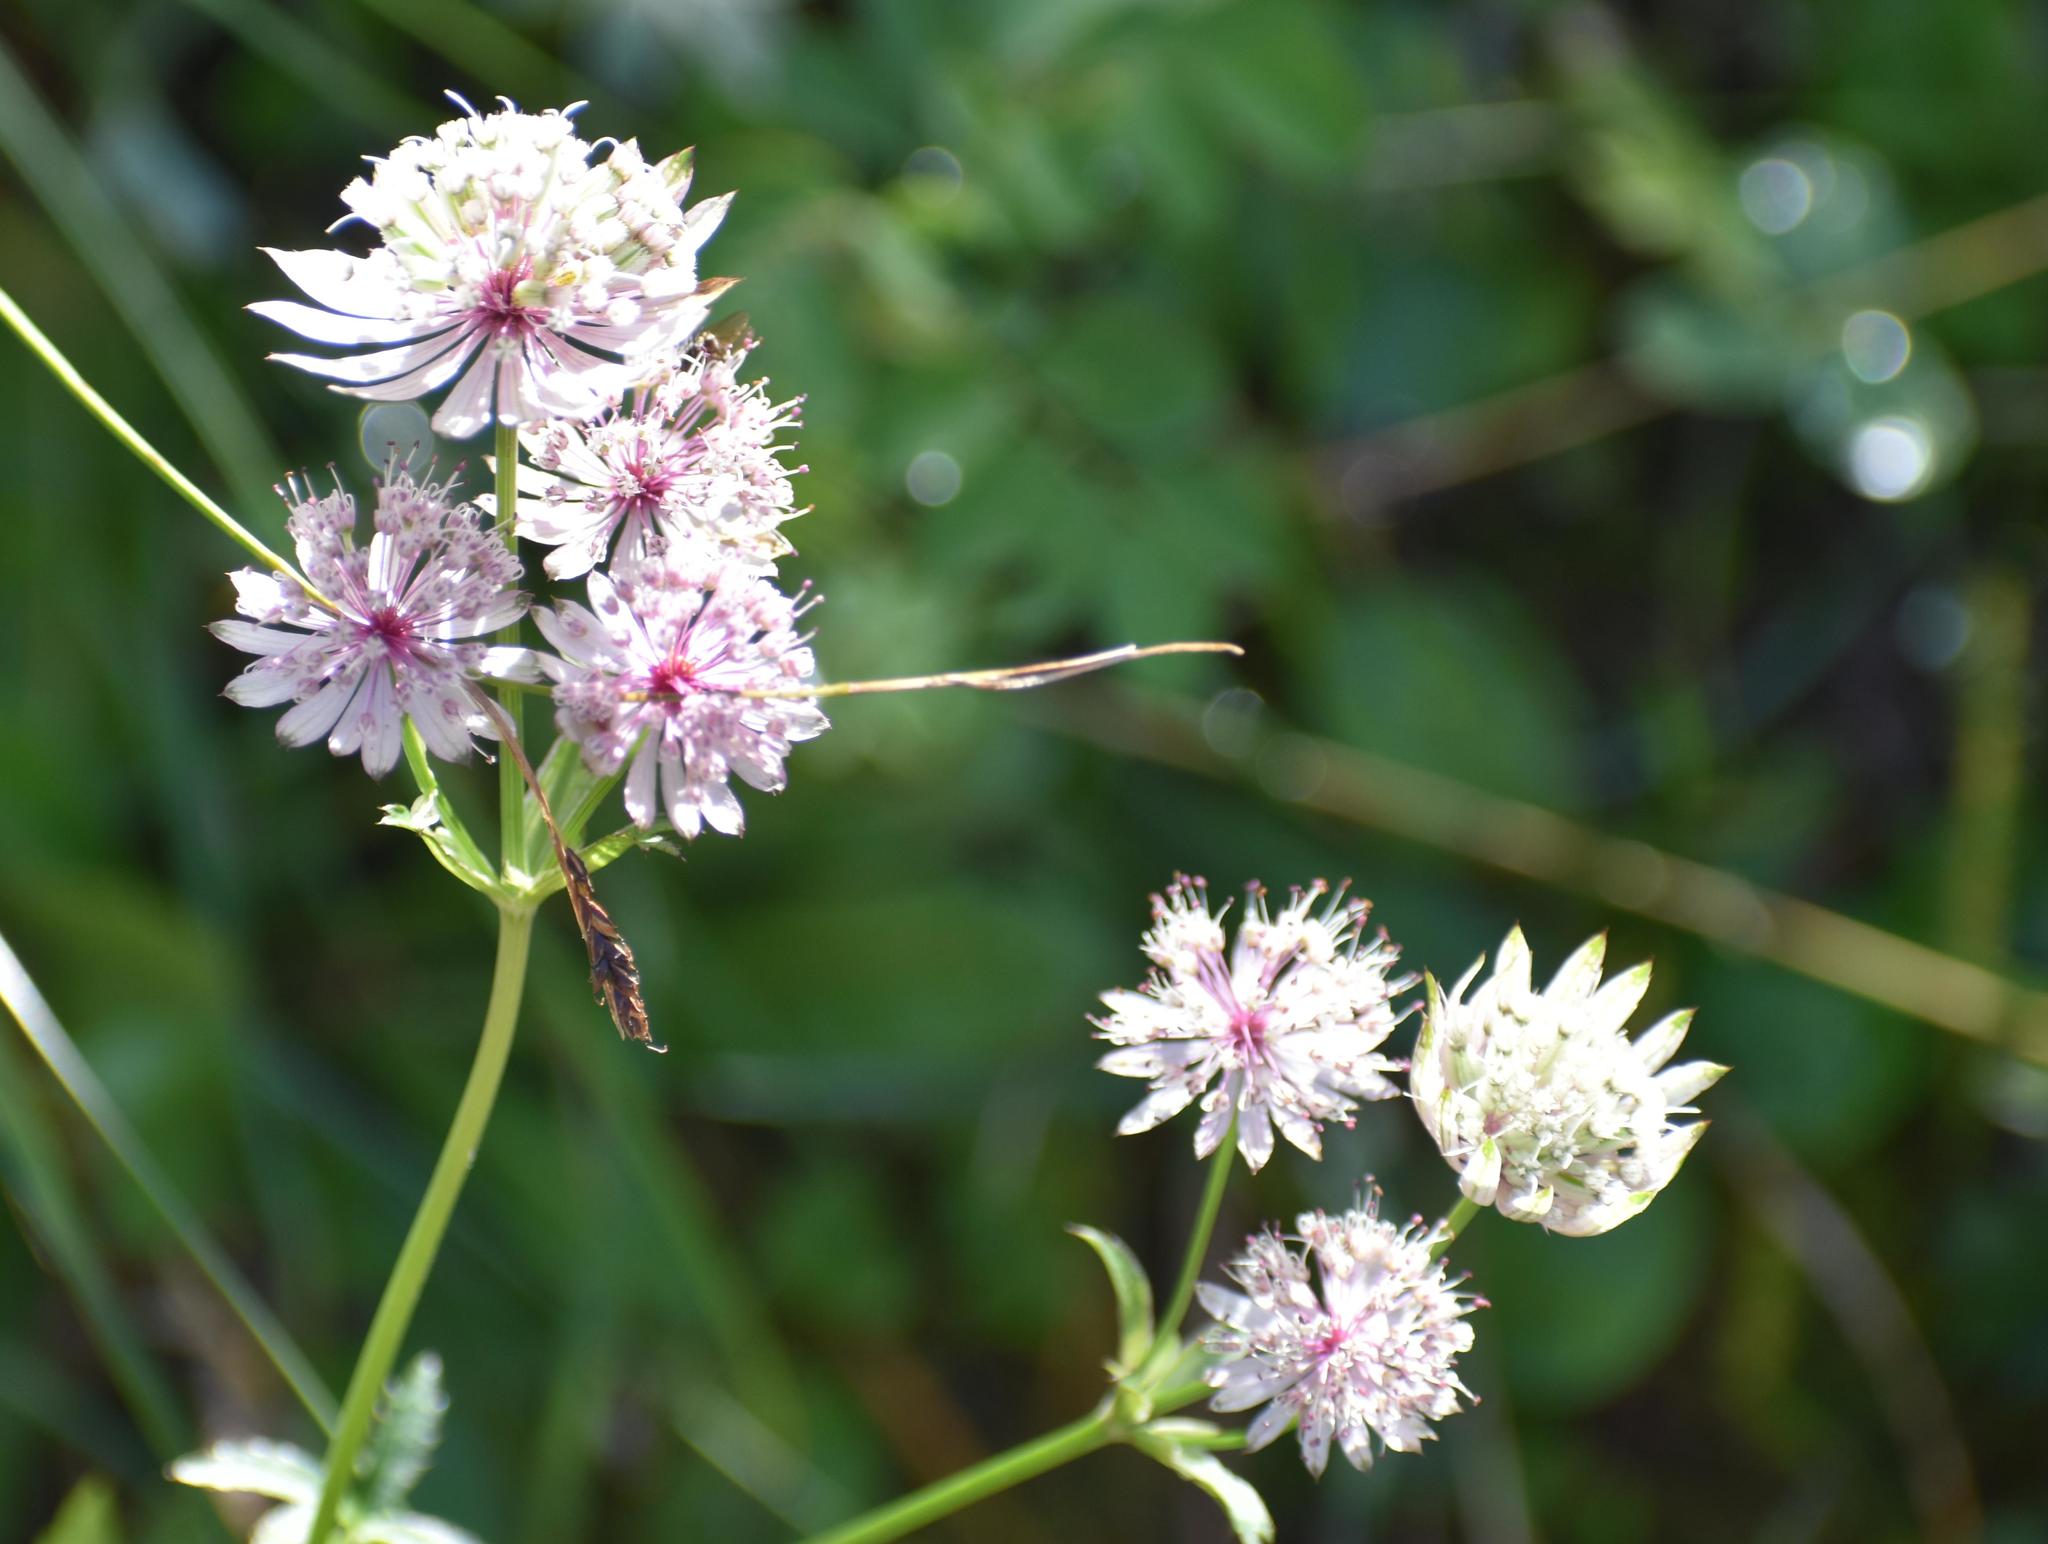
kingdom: Plantae
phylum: Tracheophyta
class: Magnoliopsida
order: Apiales
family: Apiaceae
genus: Astrantia
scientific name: Astrantia major
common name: Greater masterwort
